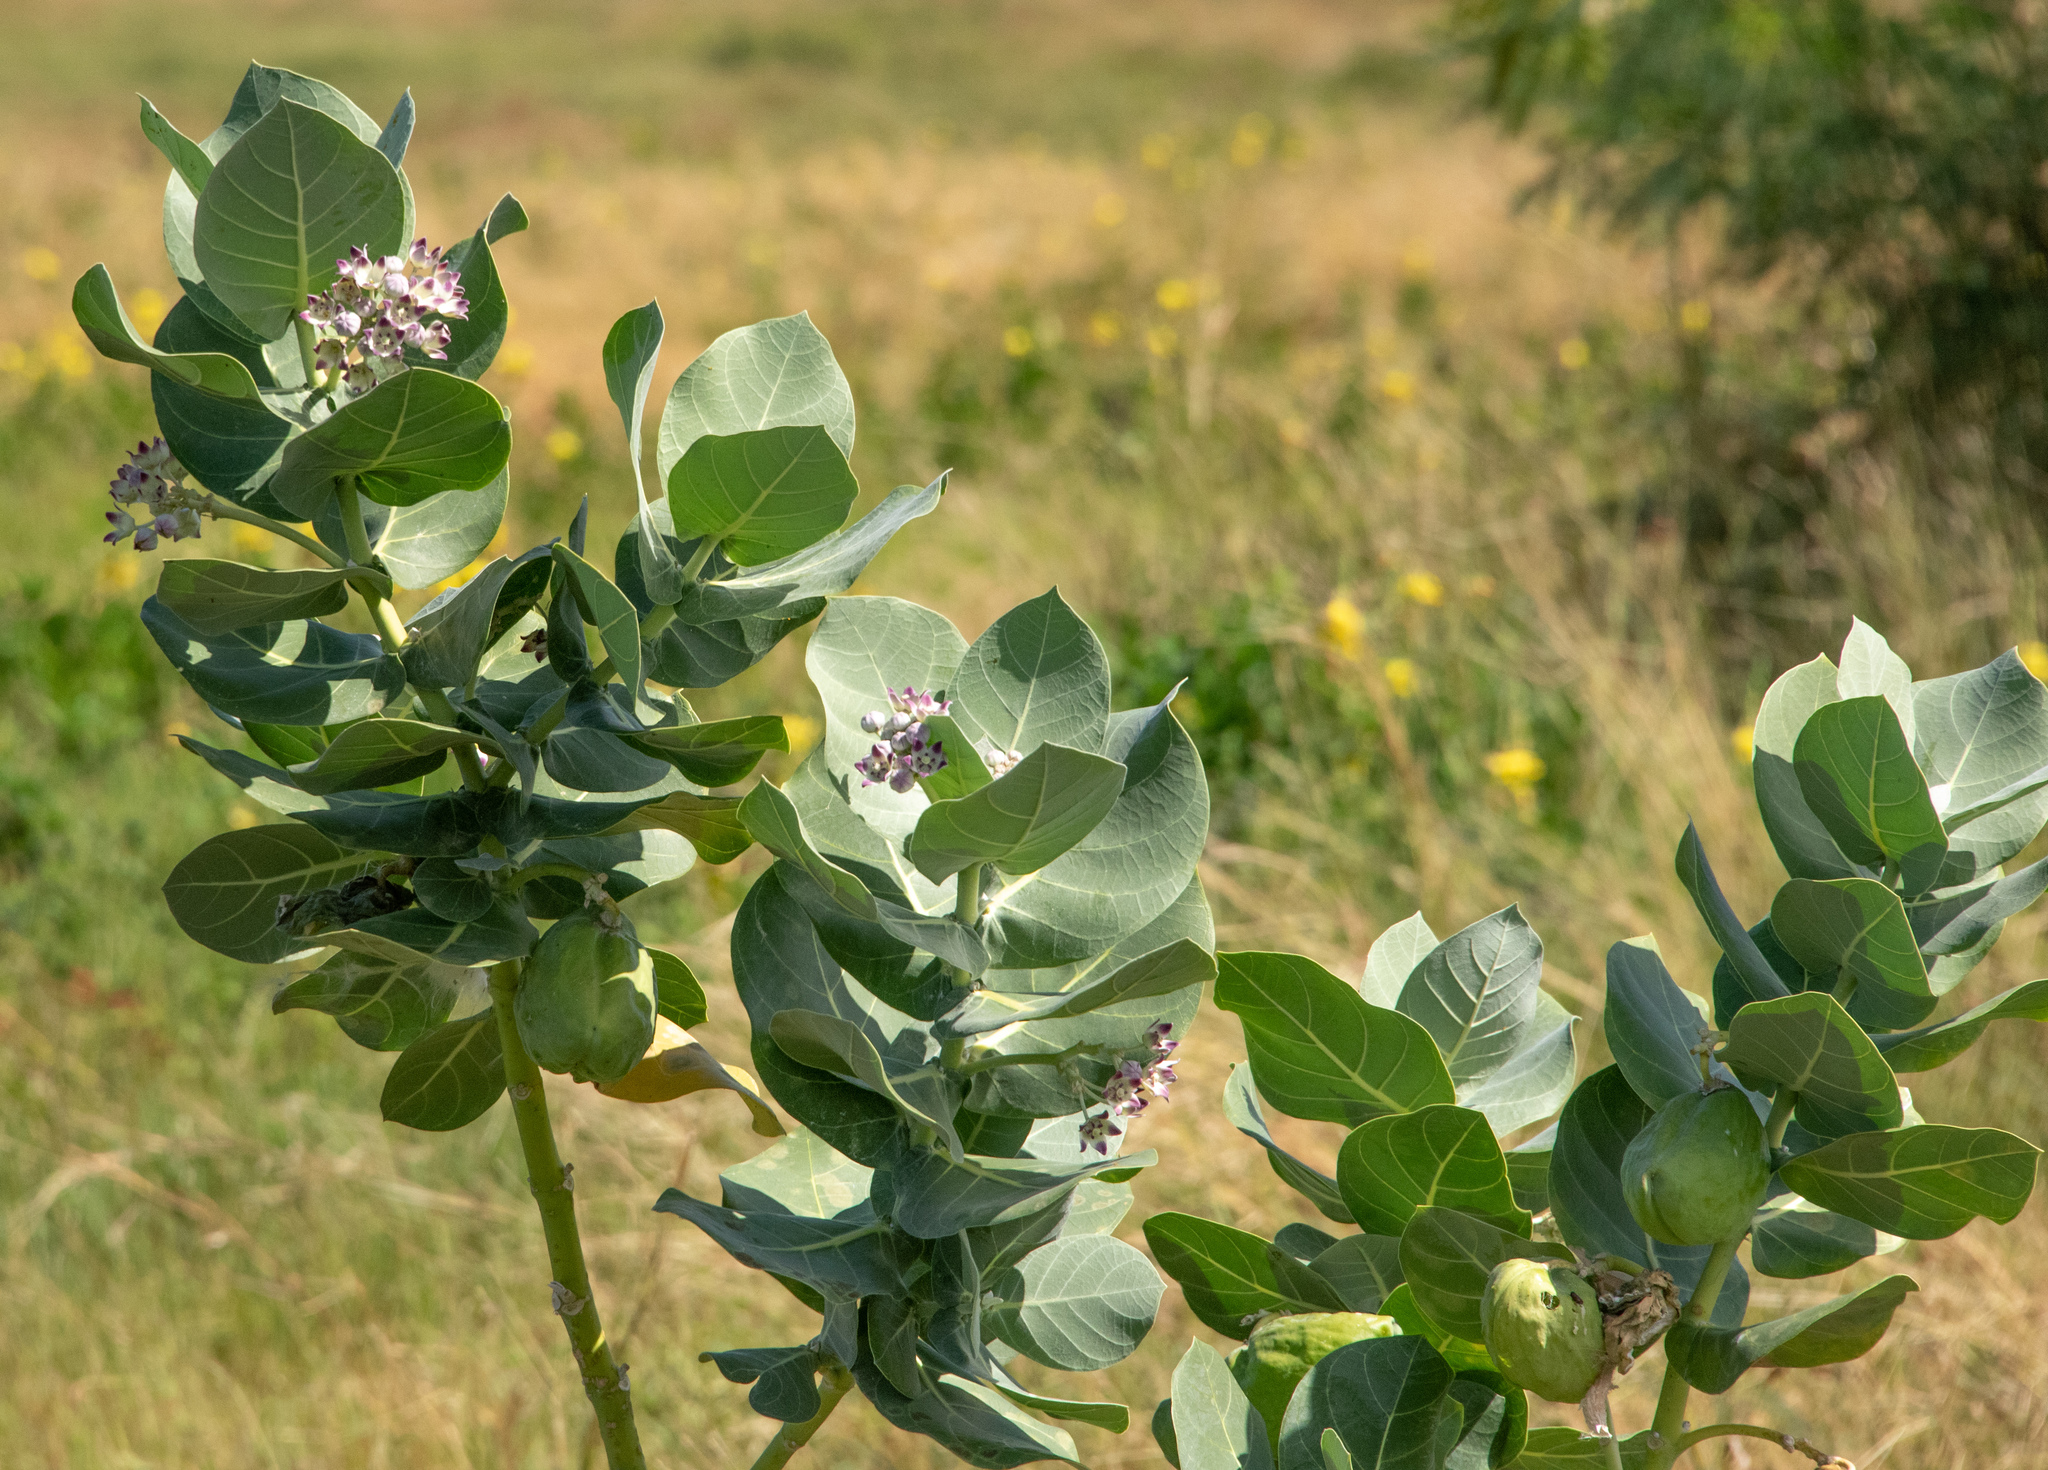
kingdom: Plantae
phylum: Tracheophyta
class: Magnoliopsida
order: Gentianales
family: Apocynaceae
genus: Calotropis
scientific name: Calotropis procera
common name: Roostertree
